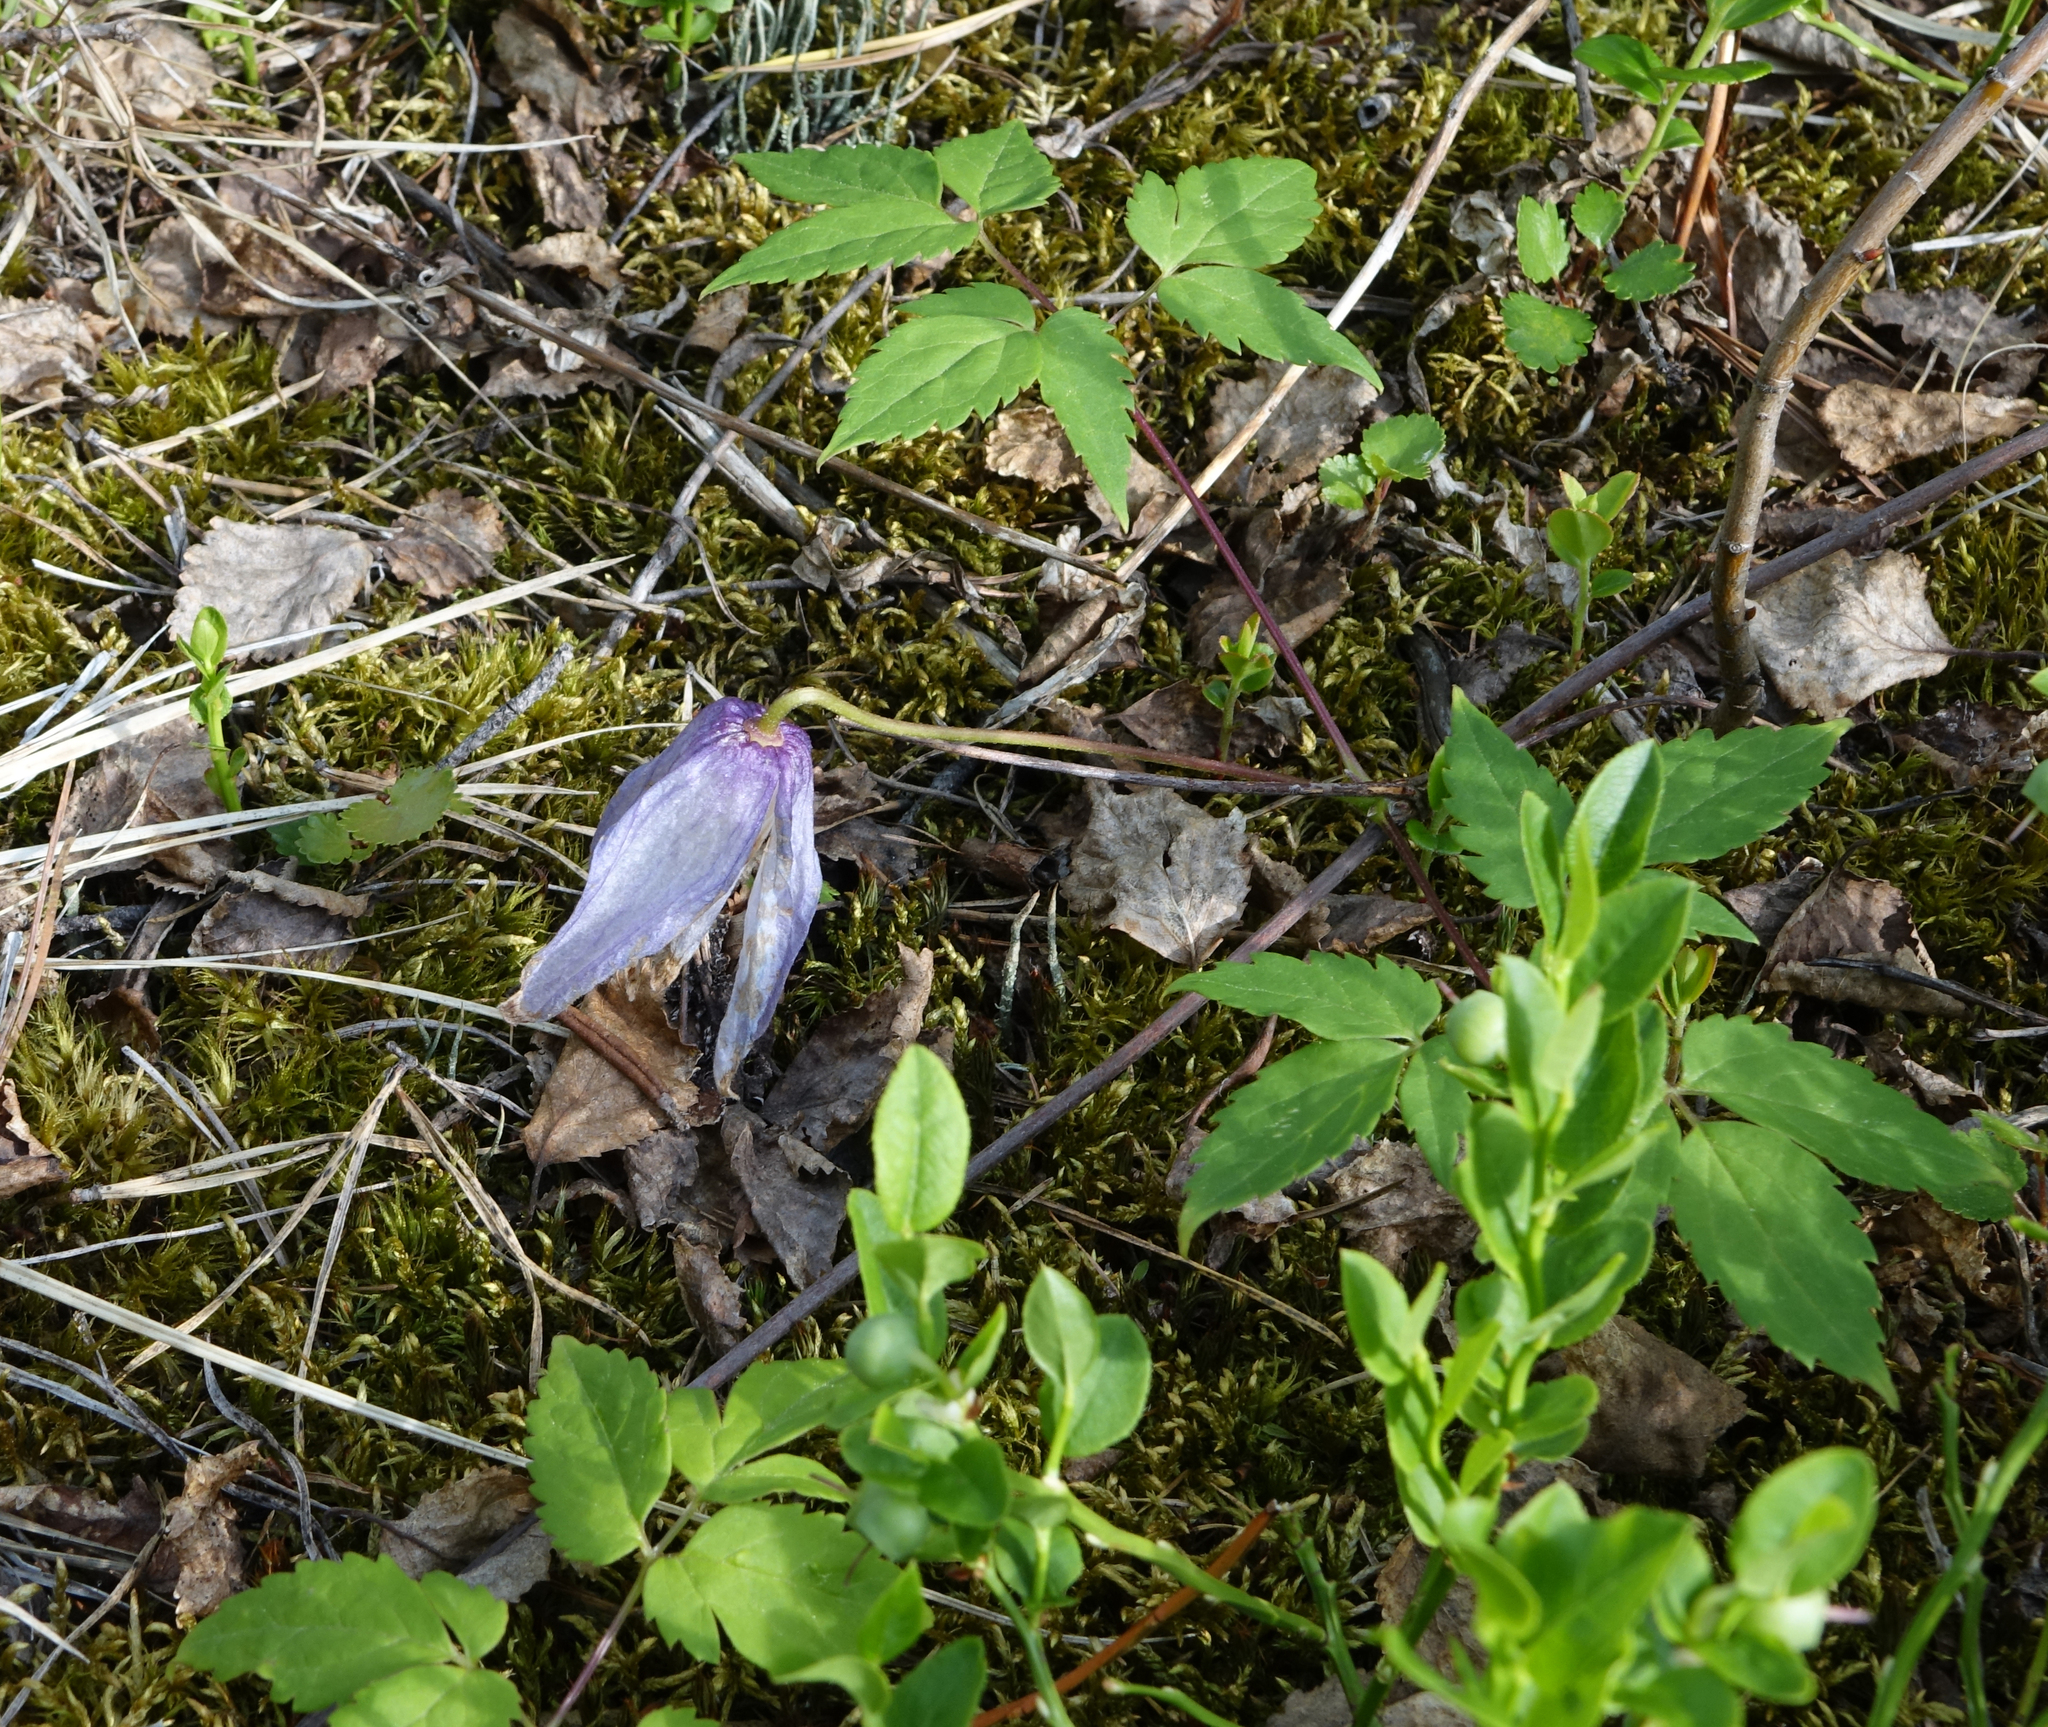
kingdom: Plantae
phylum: Tracheophyta
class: Magnoliopsida
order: Ranunculales
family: Ranunculaceae
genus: Clematis
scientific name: Clematis ochotensis
